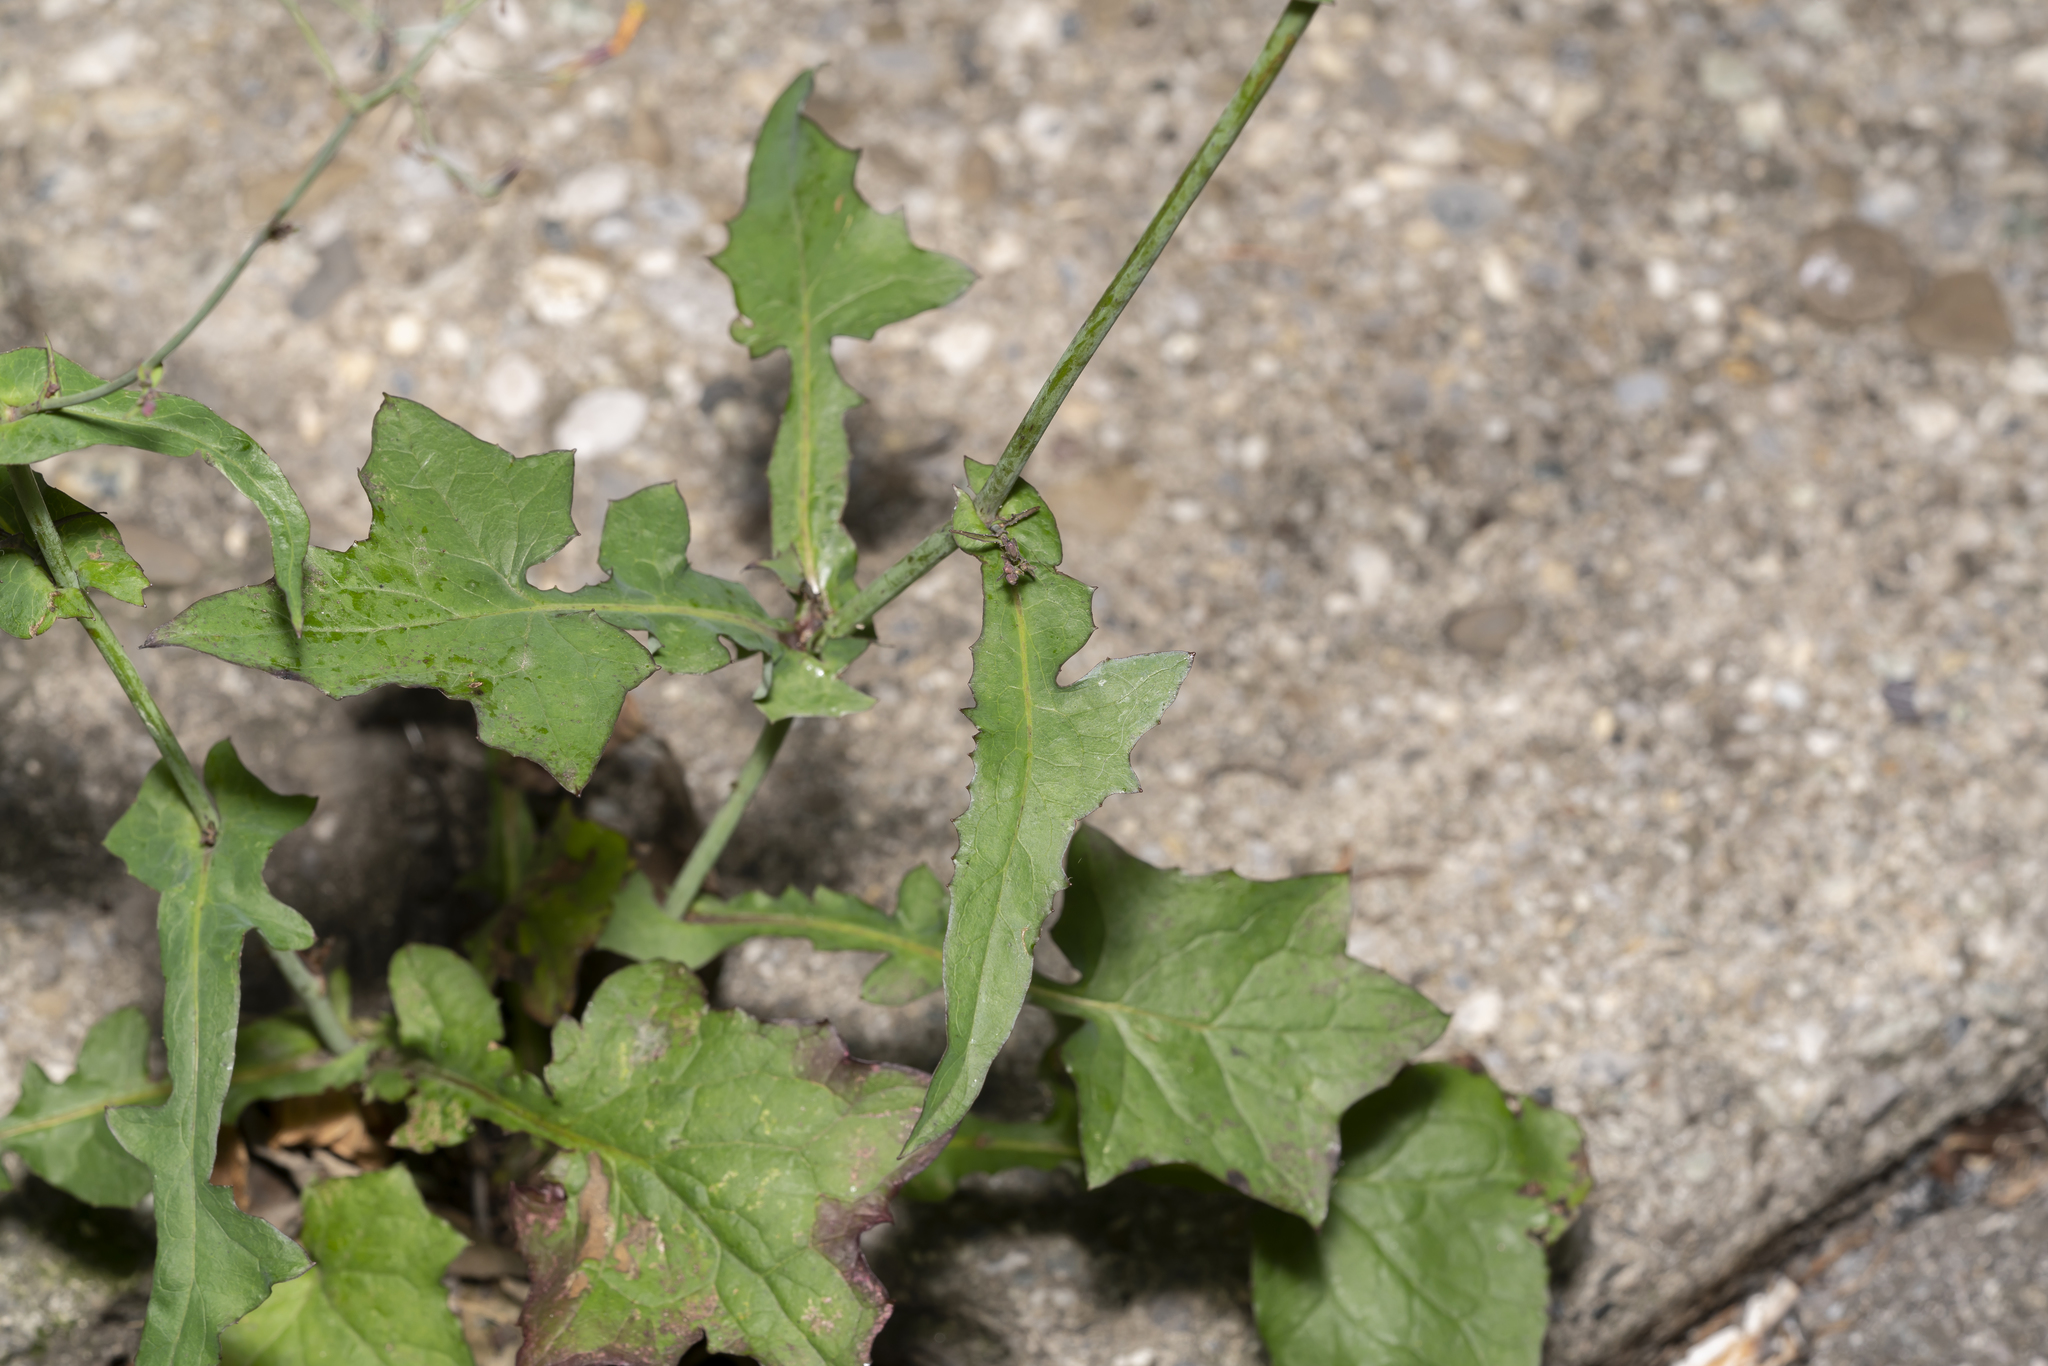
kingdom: Plantae
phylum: Tracheophyta
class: Magnoliopsida
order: Asterales
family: Asteraceae
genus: Mycelis
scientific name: Mycelis muralis
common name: Wall lettuce
